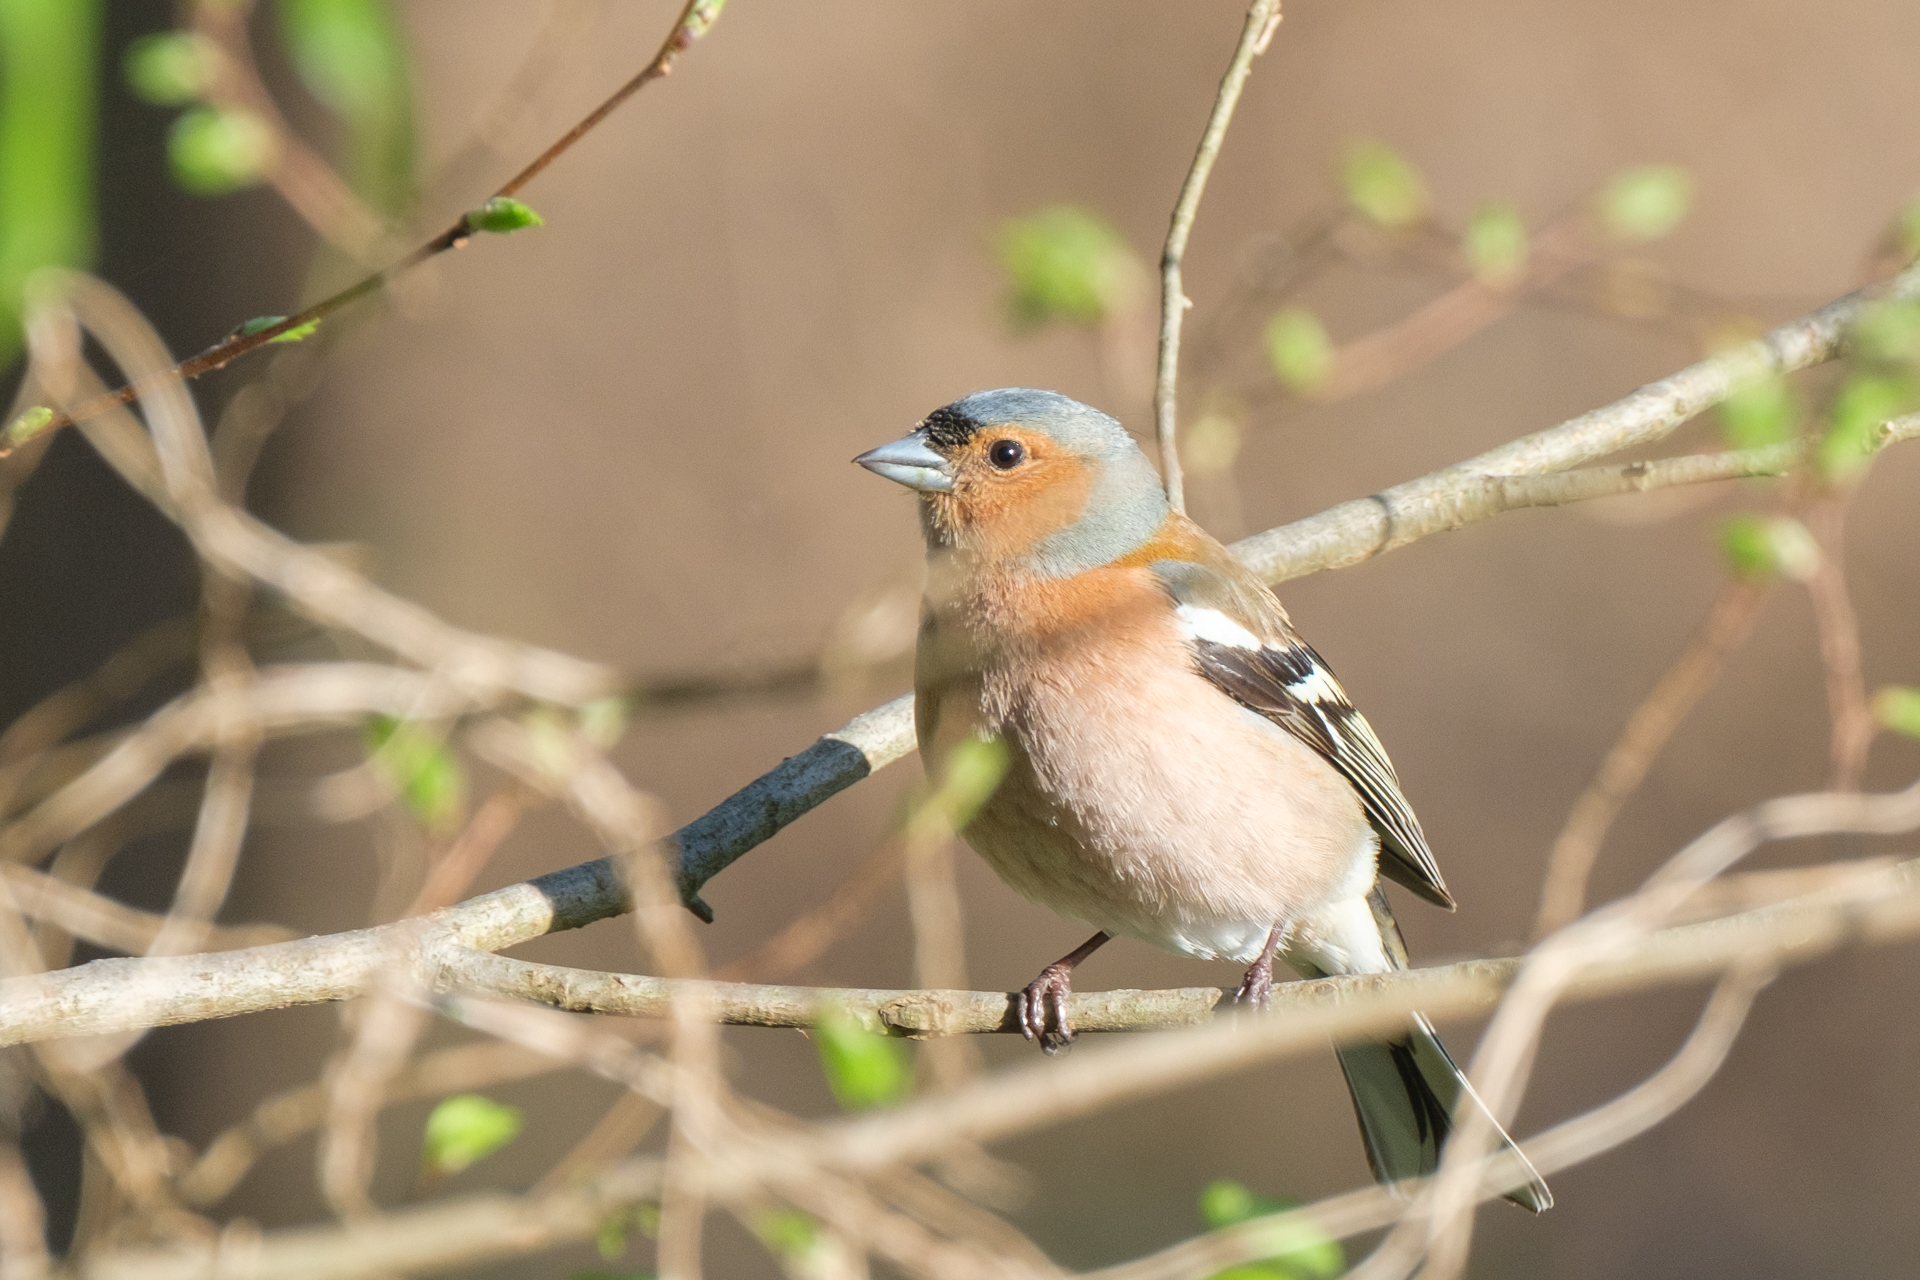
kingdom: Animalia
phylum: Chordata
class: Aves
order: Passeriformes
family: Fringillidae
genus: Fringilla
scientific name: Fringilla coelebs
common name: Common chaffinch
